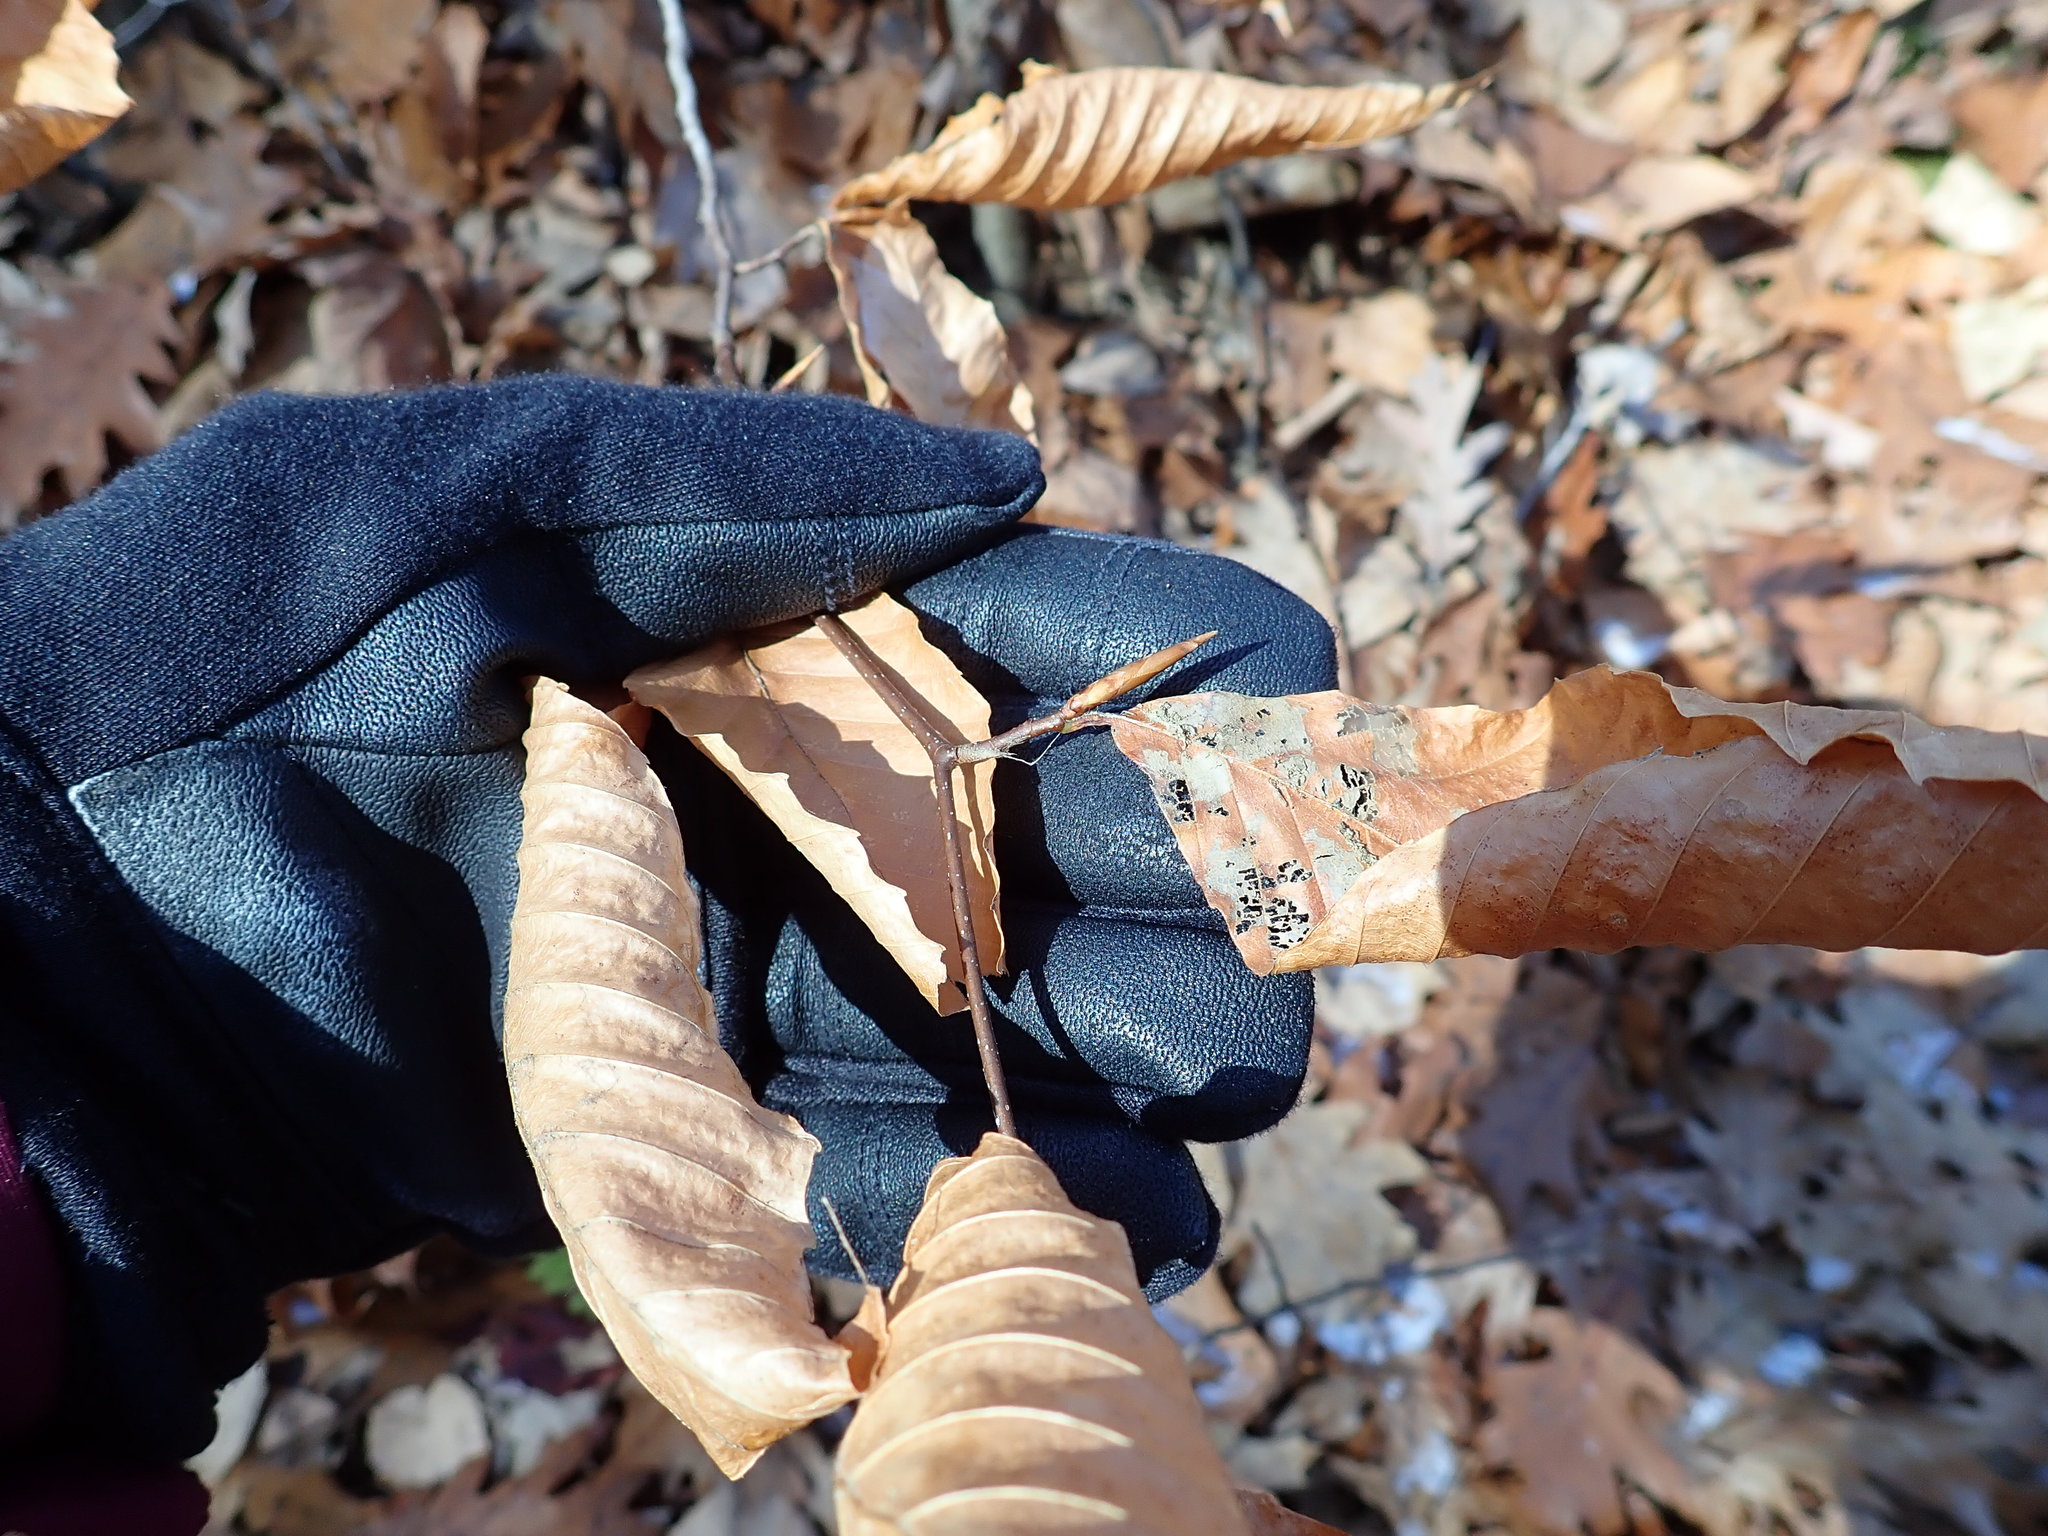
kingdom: Plantae
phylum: Tracheophyta
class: Magnoliopsida
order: Fagales
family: Fagaceae
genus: Fagus
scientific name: Fagus grandifolia
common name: American beech
